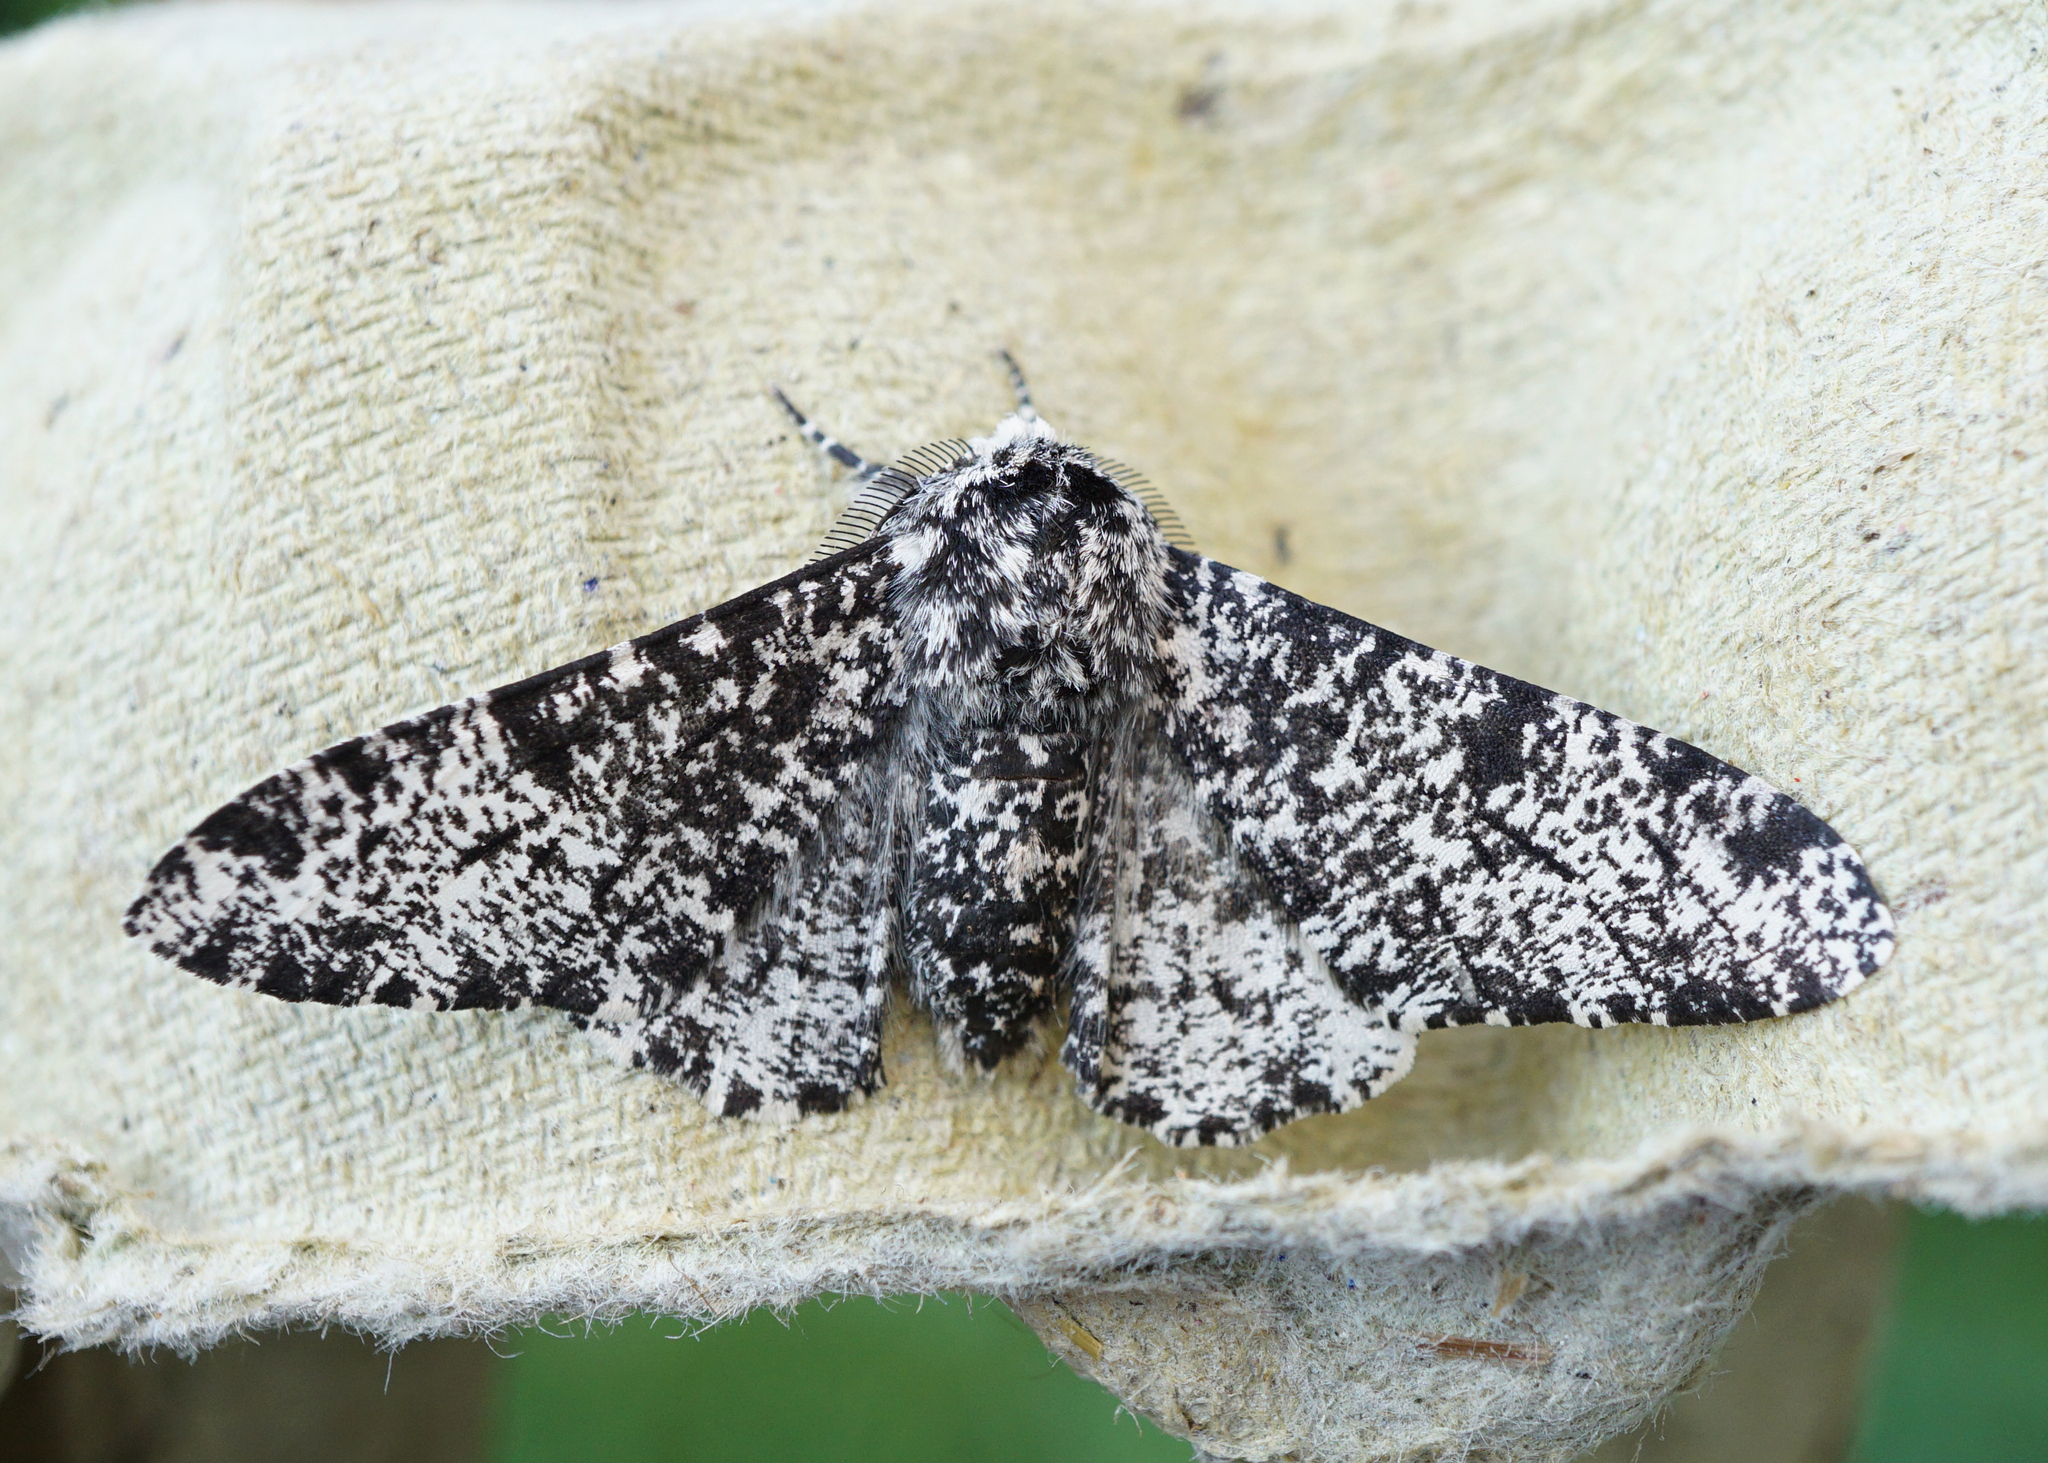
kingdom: Animalia
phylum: Arthropoda
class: Insecta
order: Lepidoptera
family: Geometridae
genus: Biston
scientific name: Biston betularia
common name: Peppered moth
